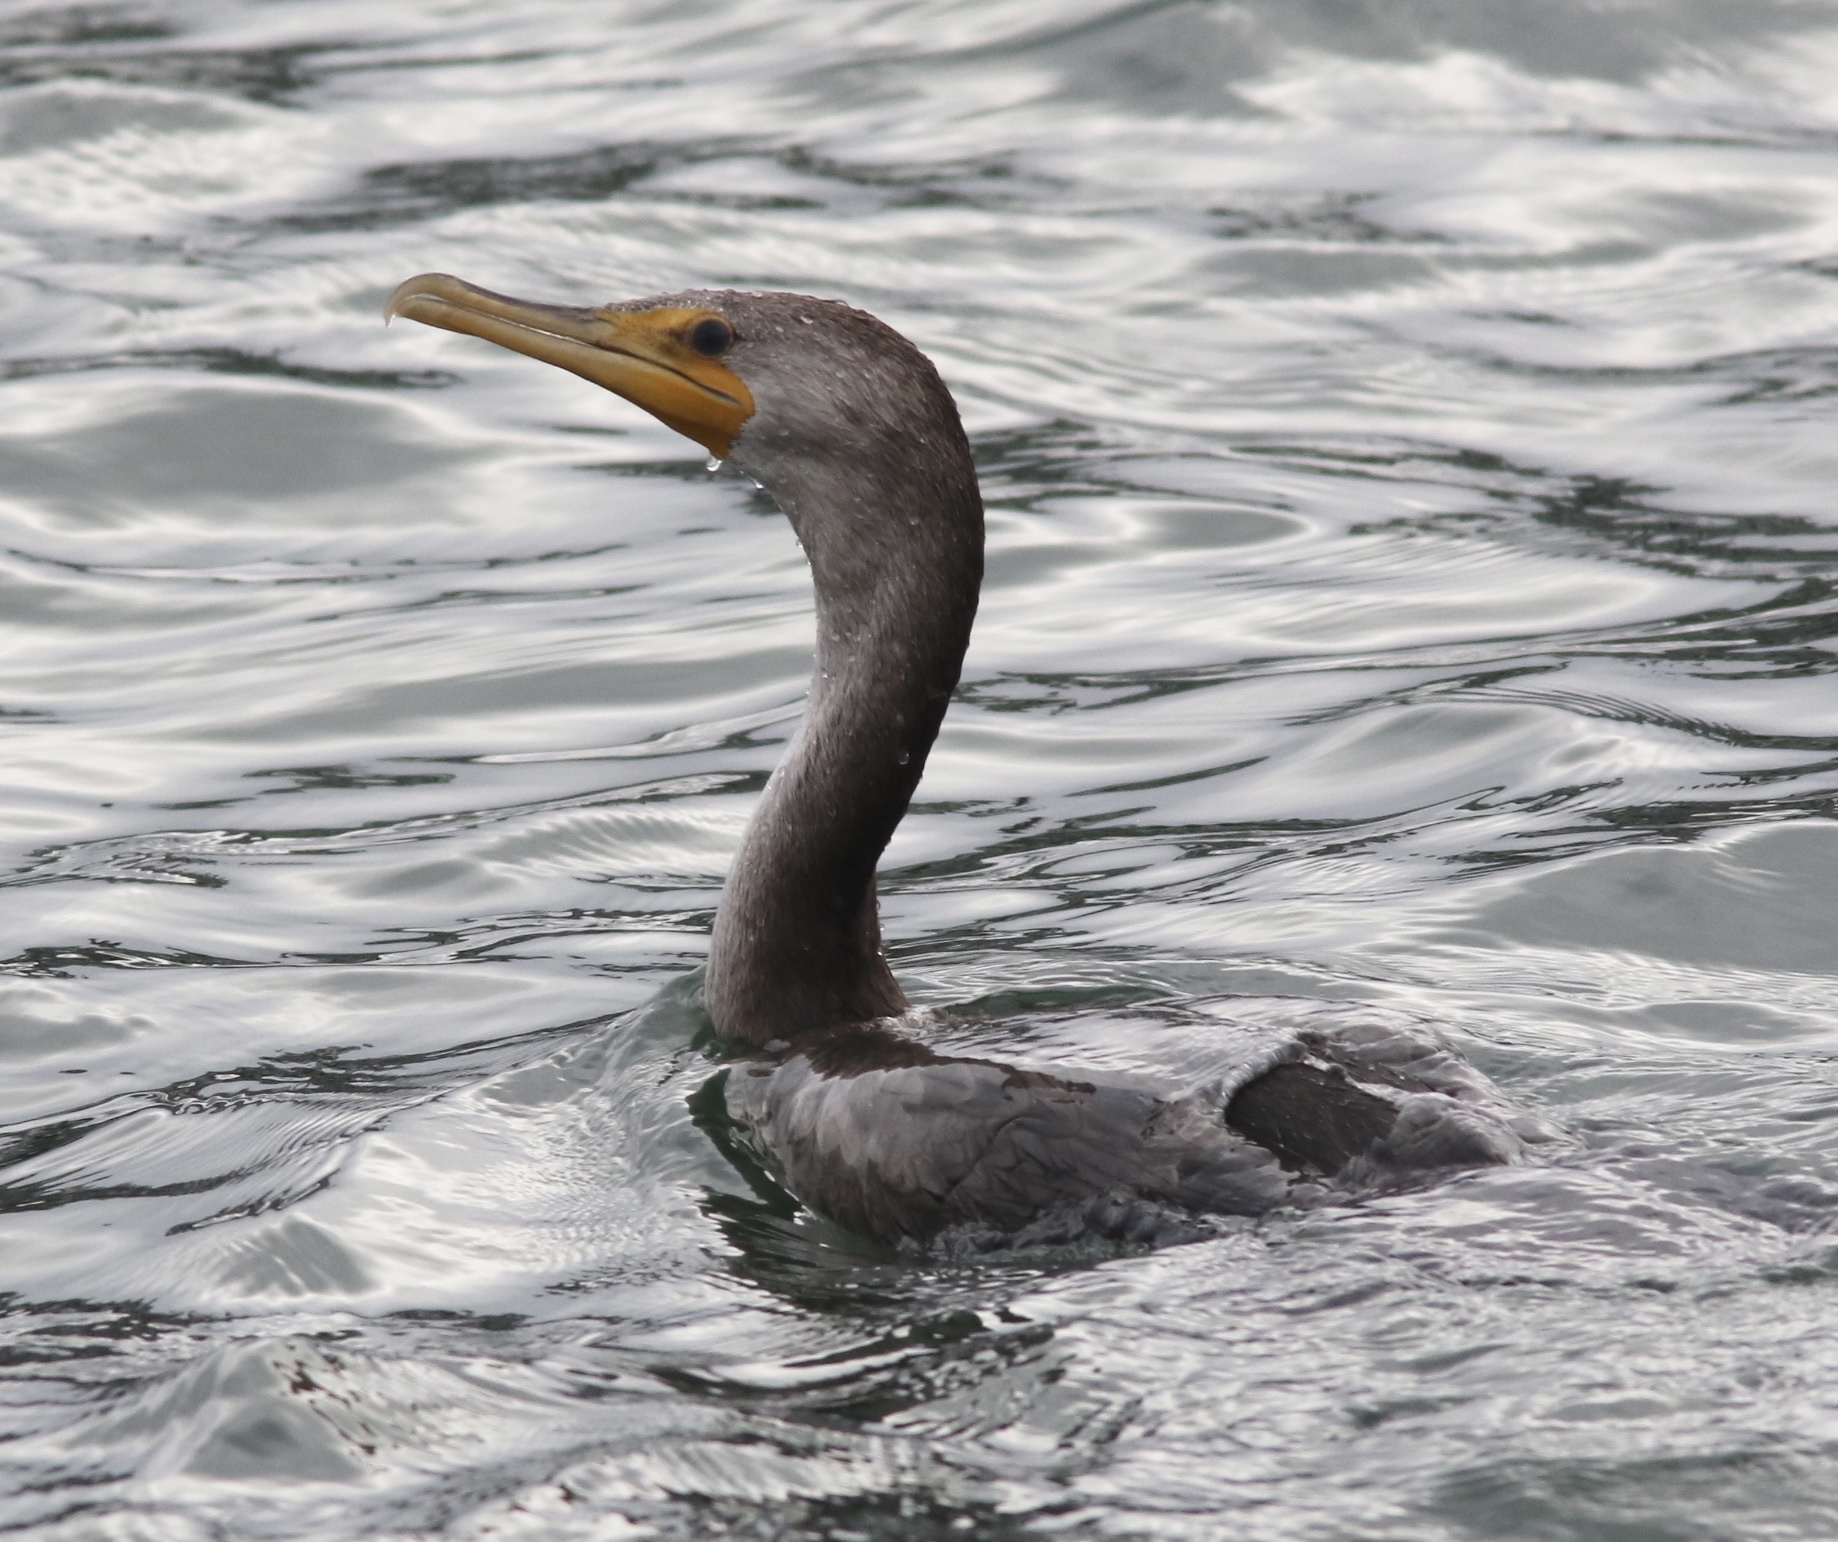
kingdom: Animalia
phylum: Chordata
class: Aves
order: Suliformes
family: Phalacrocoracidae
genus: Phalacrocorax
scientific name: Phalacrocorax auritus
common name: Double-crested cormorant
